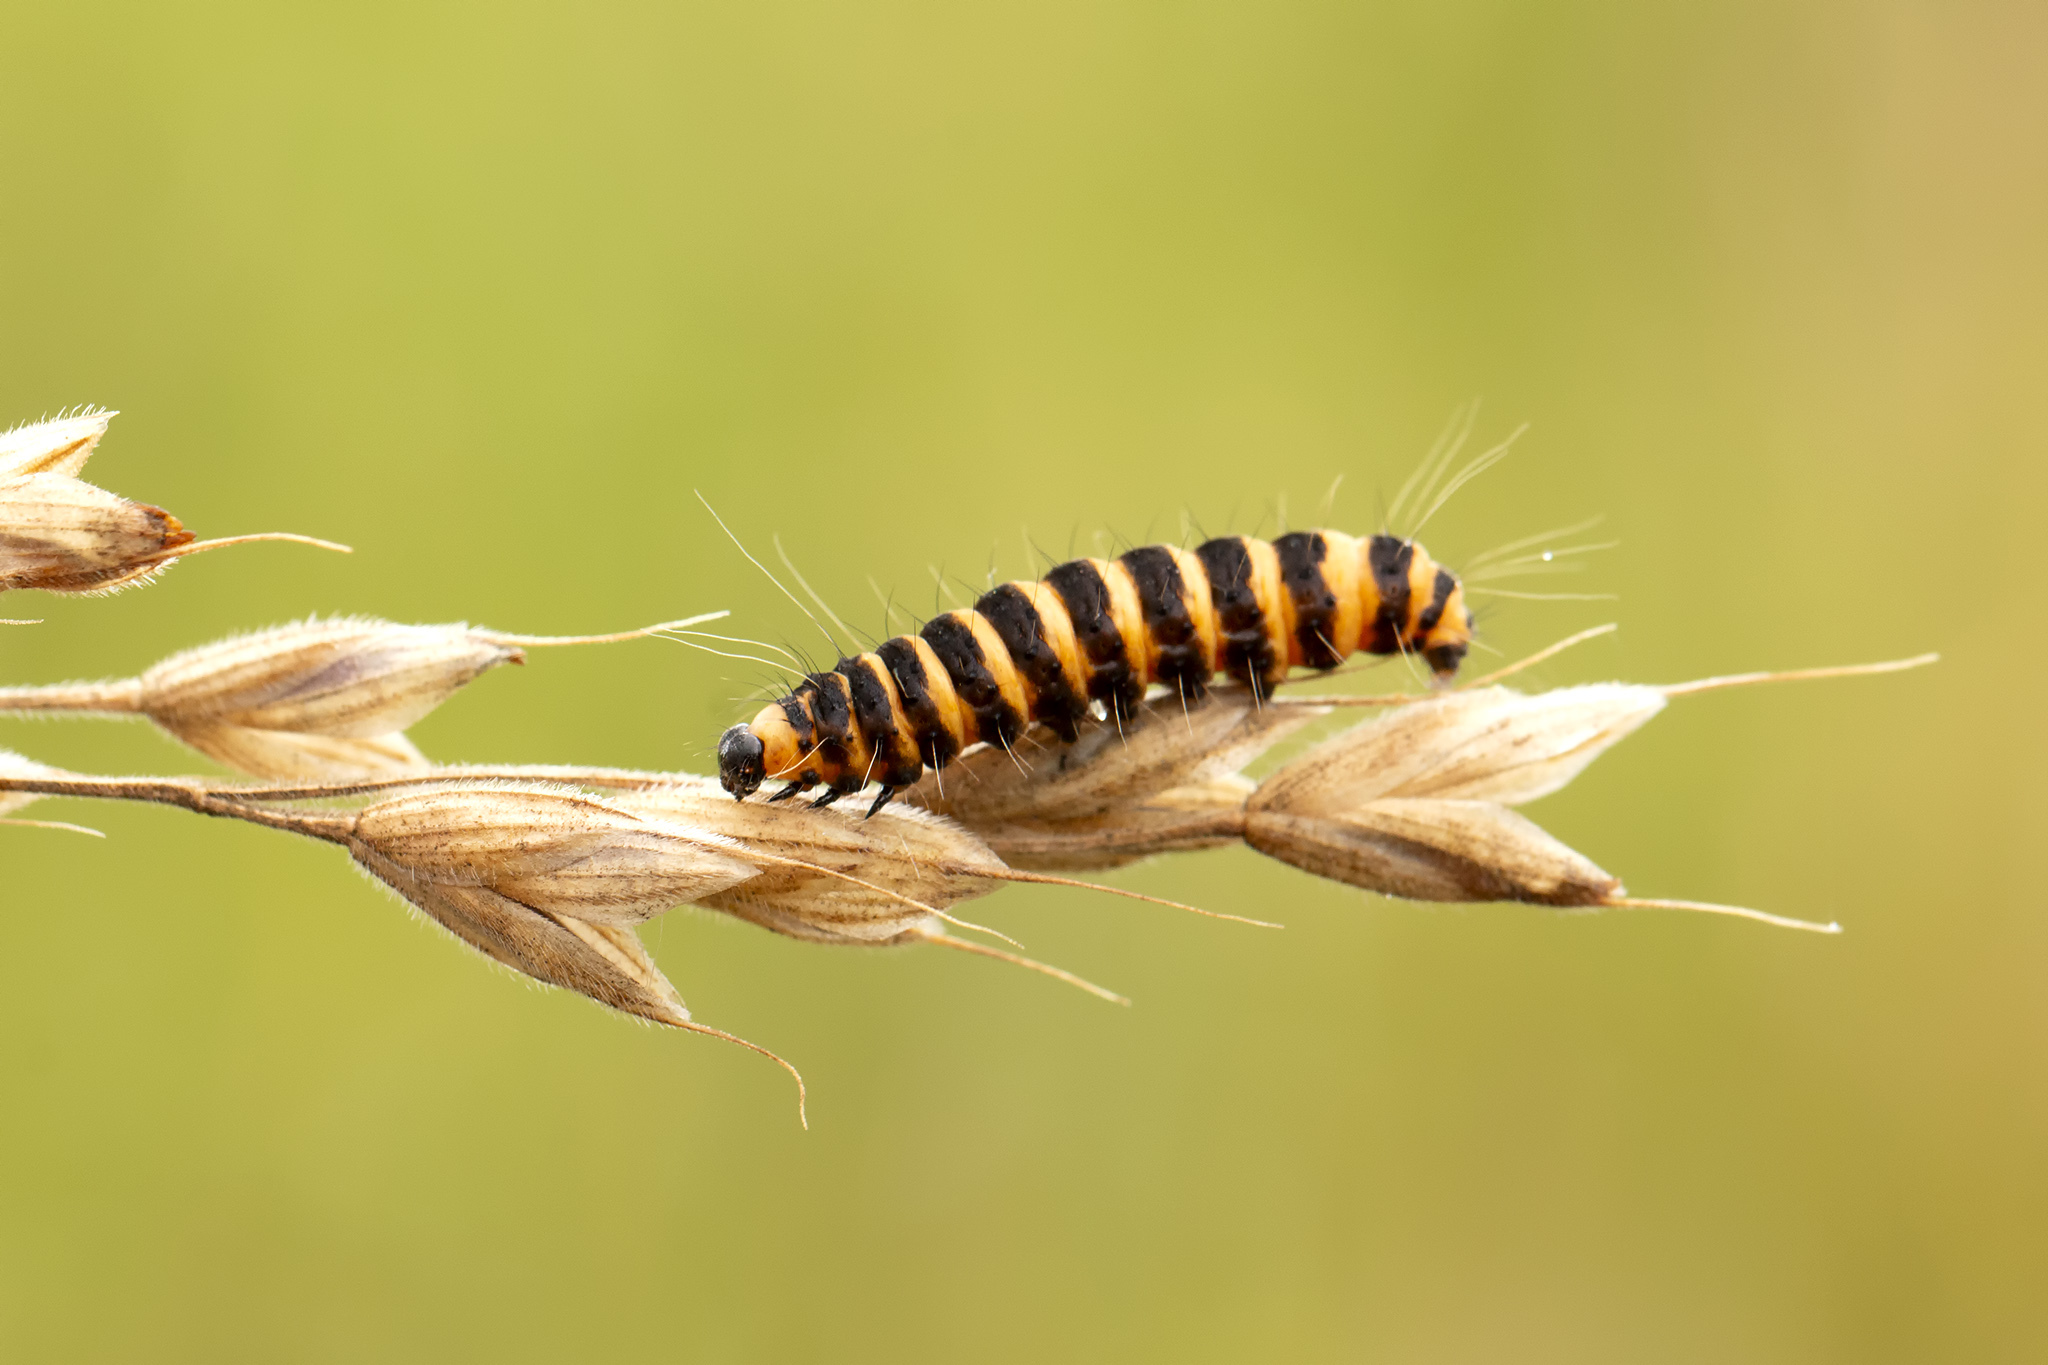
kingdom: Animalia
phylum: Arthropoda
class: Insecta
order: Lepidoptera
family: Erebidae
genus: Tyria
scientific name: Tyria jacobaeae
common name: Cinnabar
